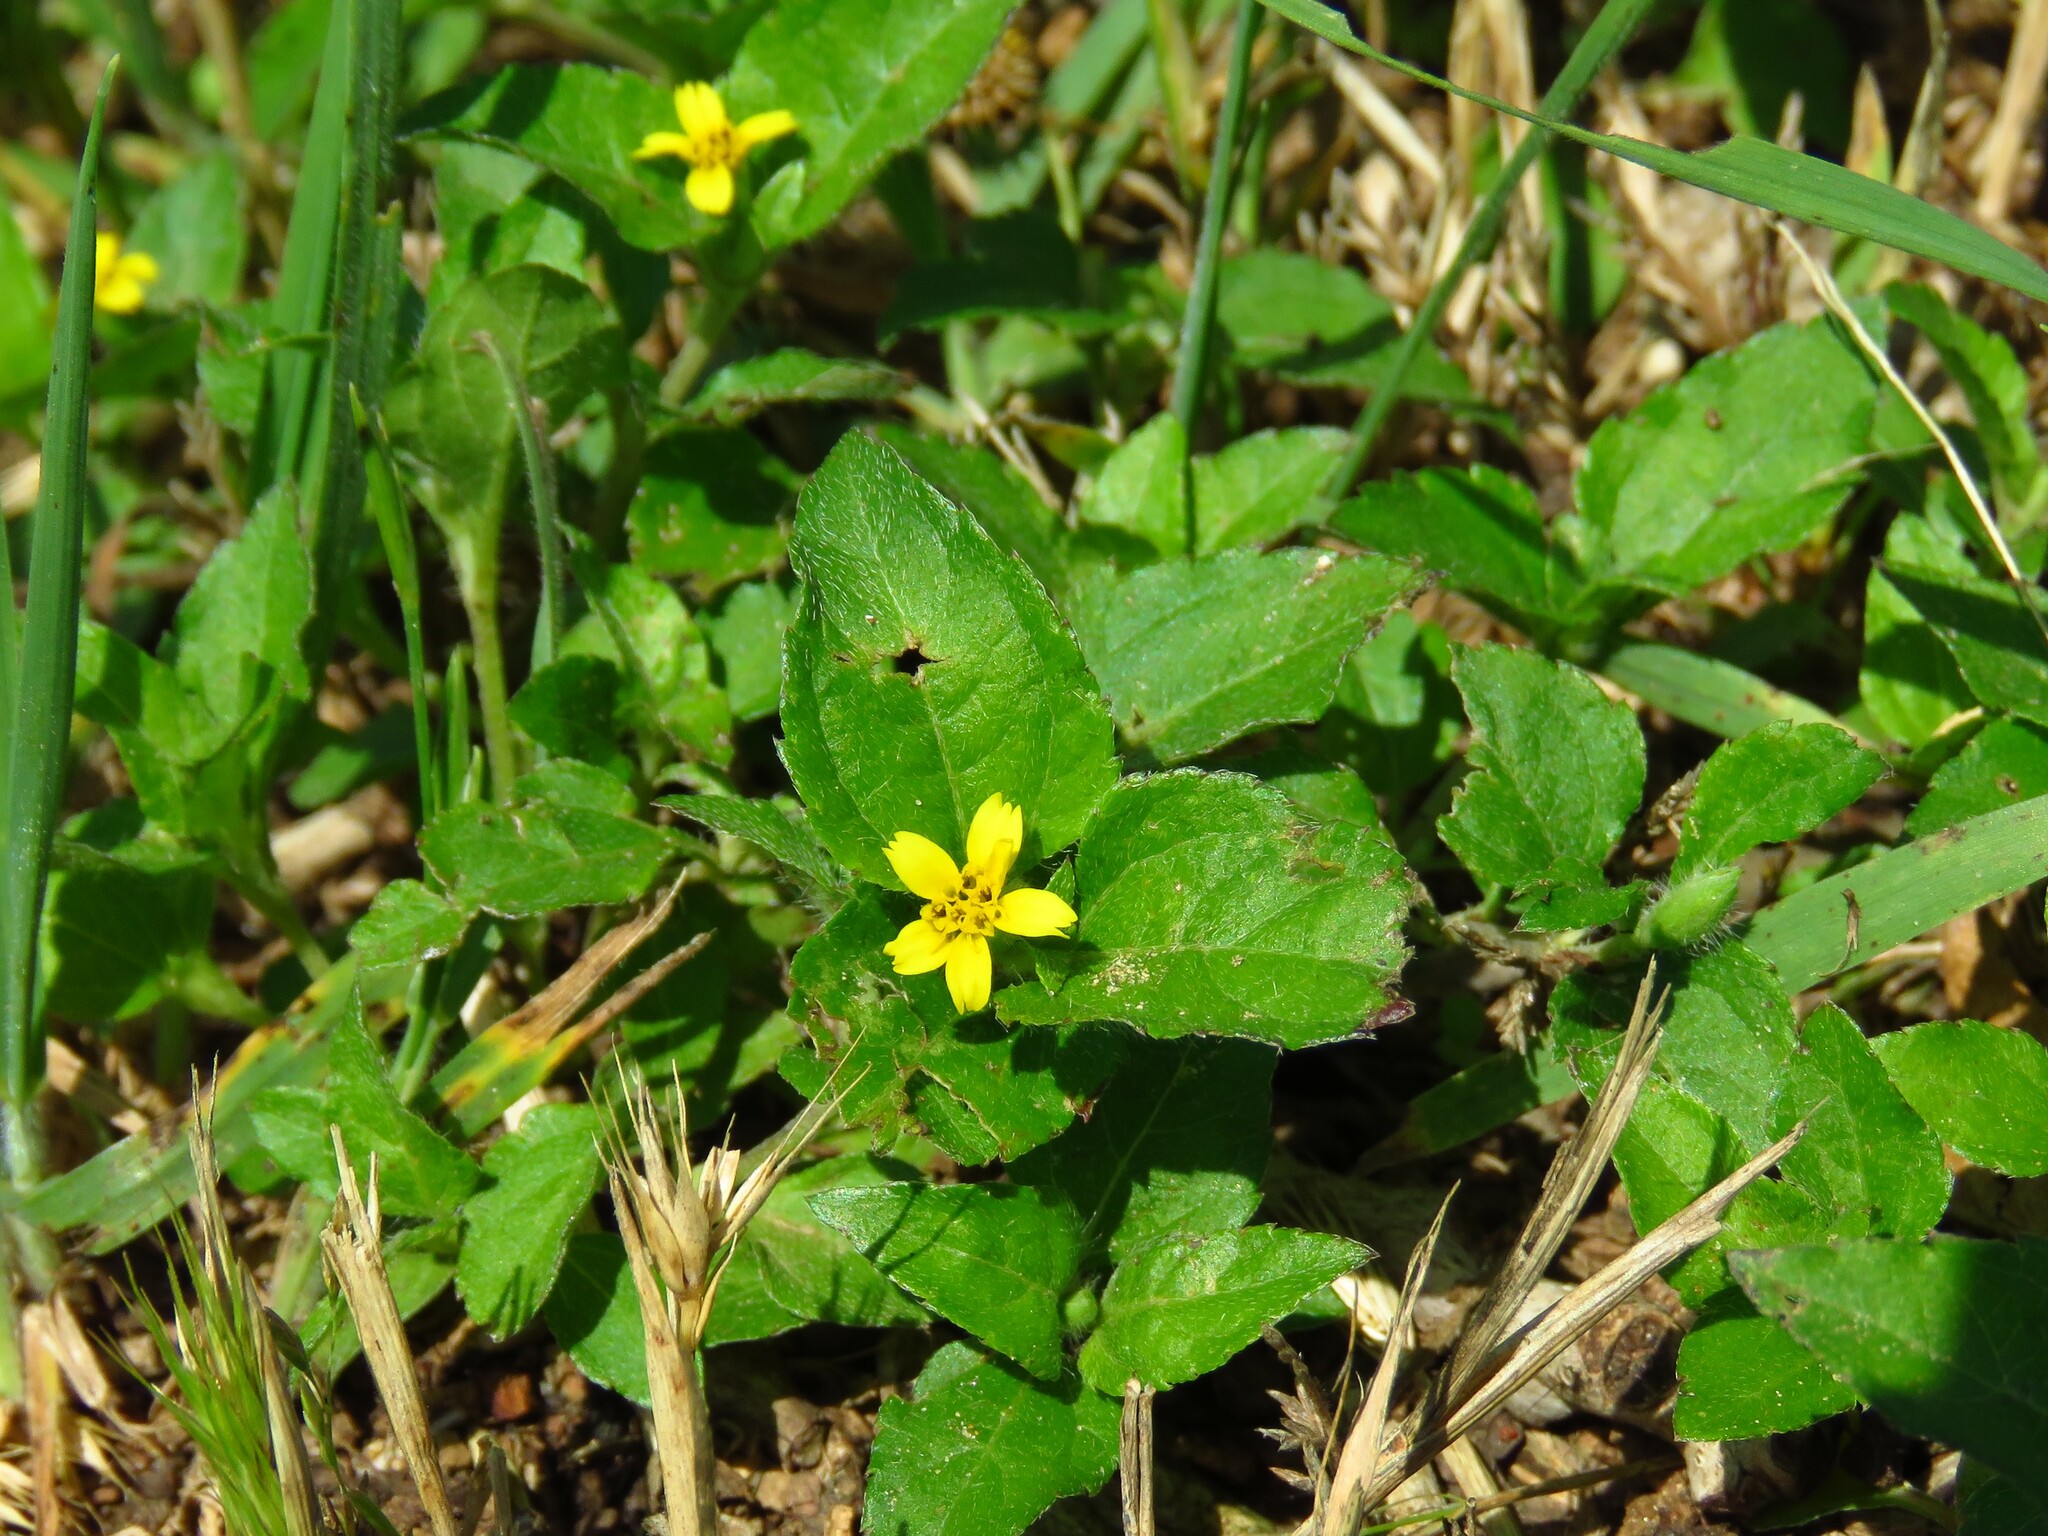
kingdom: Plantae
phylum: Tracheophyta
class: Magnoliopsida
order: Asterales
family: Asteraceae
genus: Calyptocarpus
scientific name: Calyptocarpus vialis
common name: Straggler daisy
